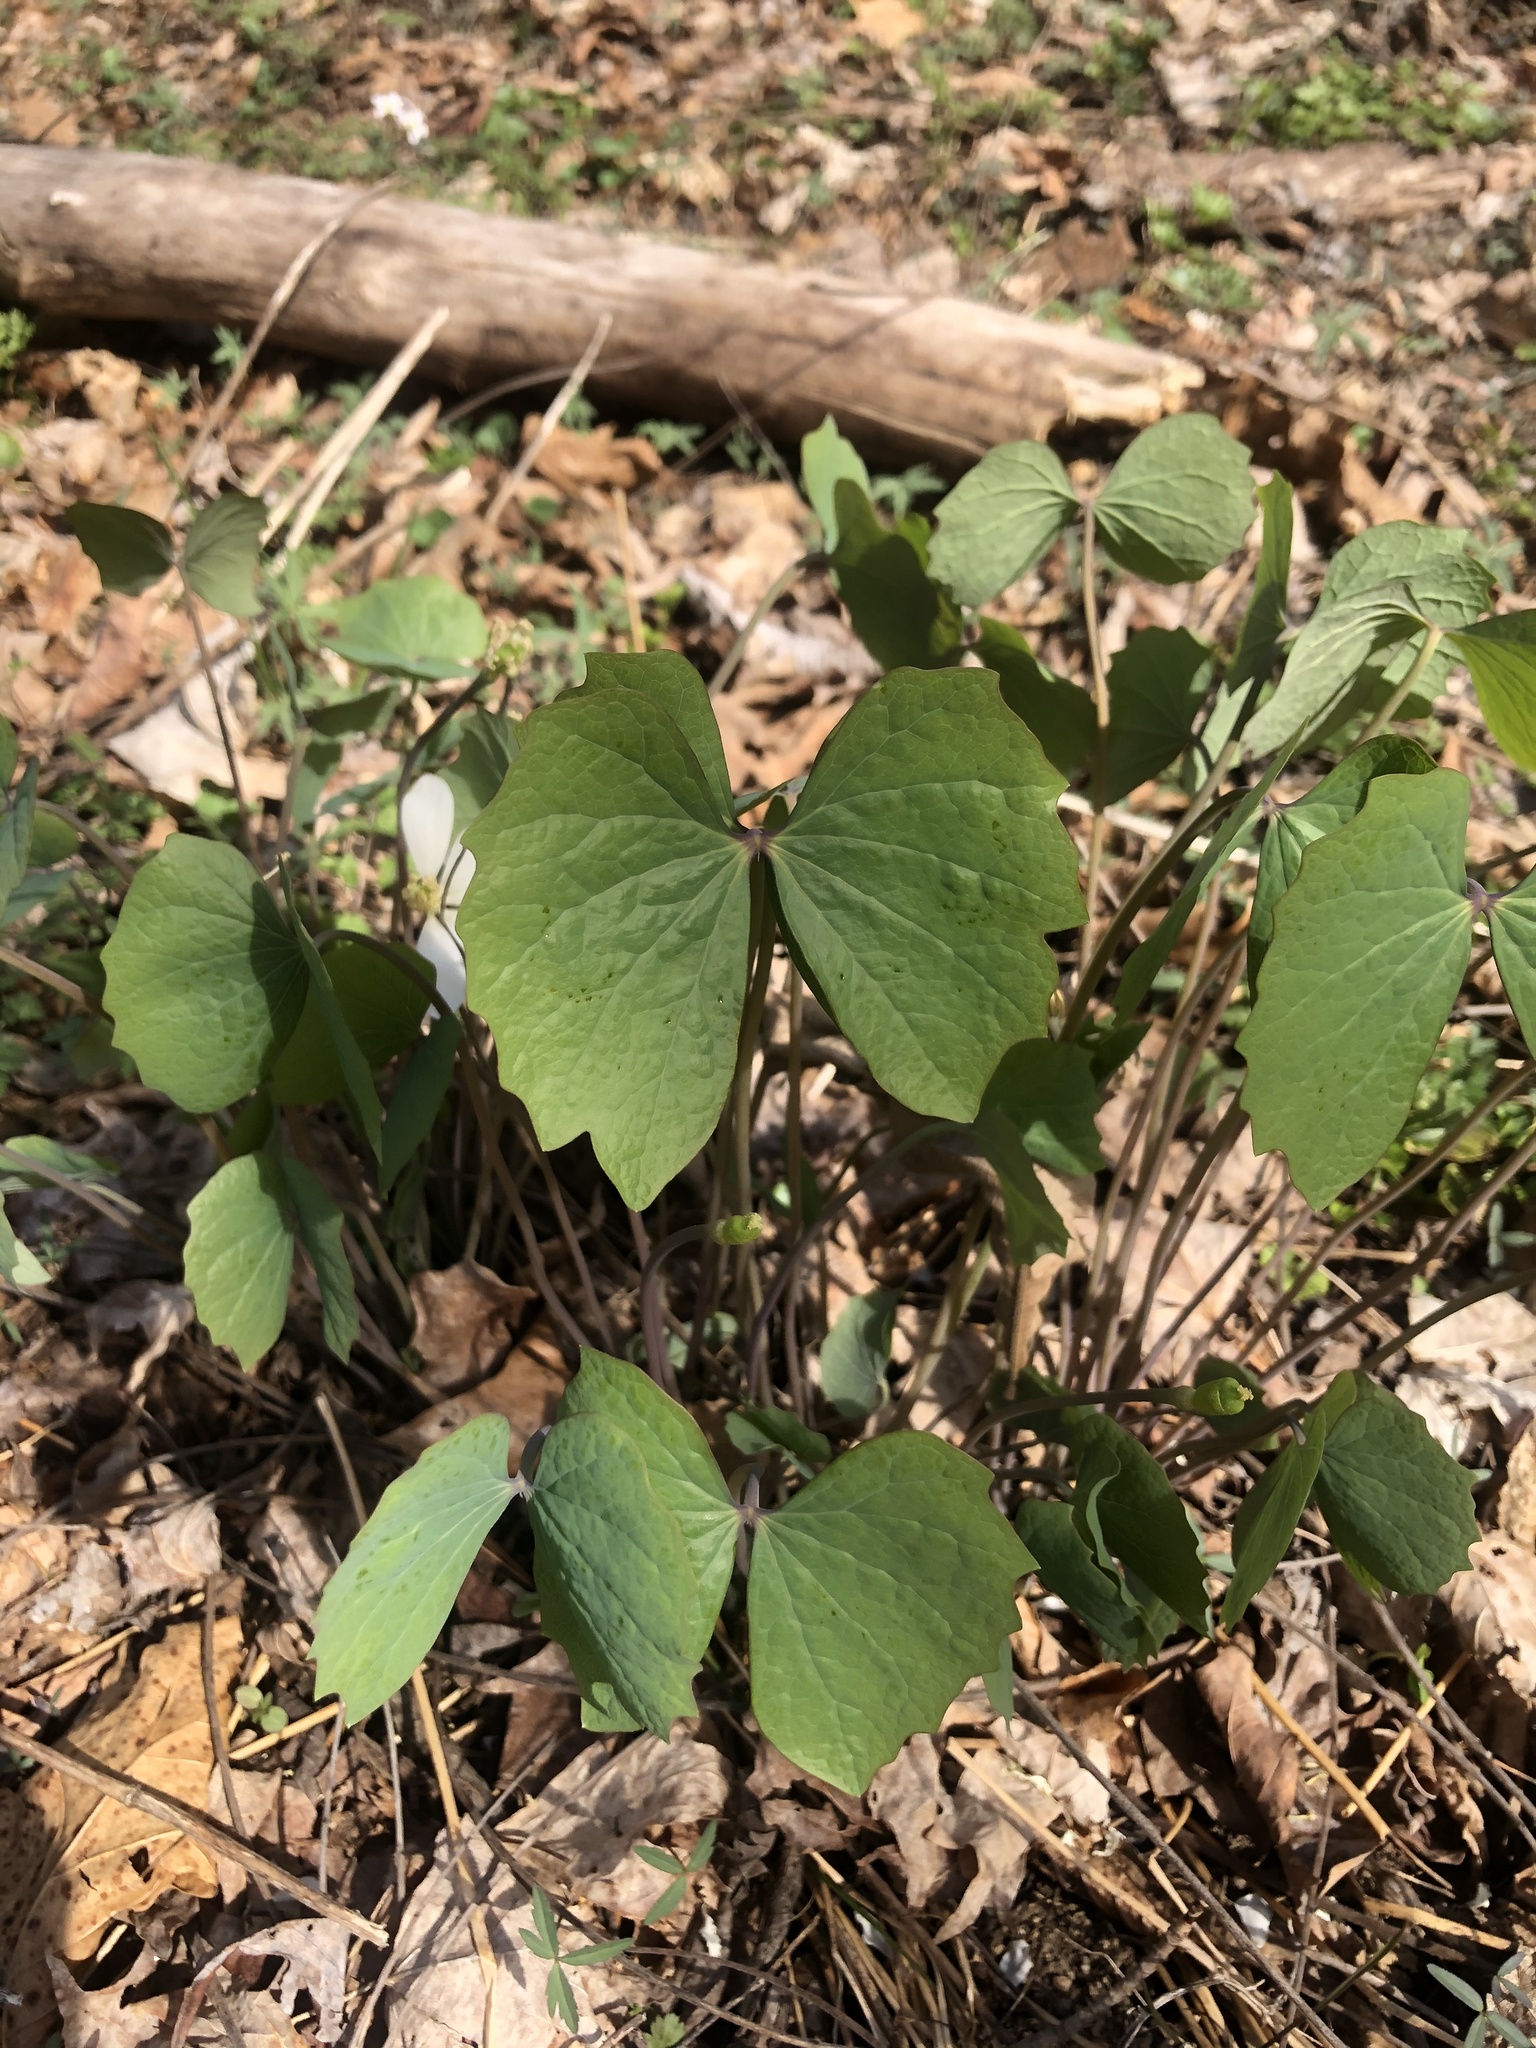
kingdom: Plantae
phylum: Tracheophyta
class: Magnoliopsida
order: Ranunculales
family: Berberidaceae
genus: Jeffersonia
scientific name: Jeffersonia diphylla
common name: Rheumatism-root
